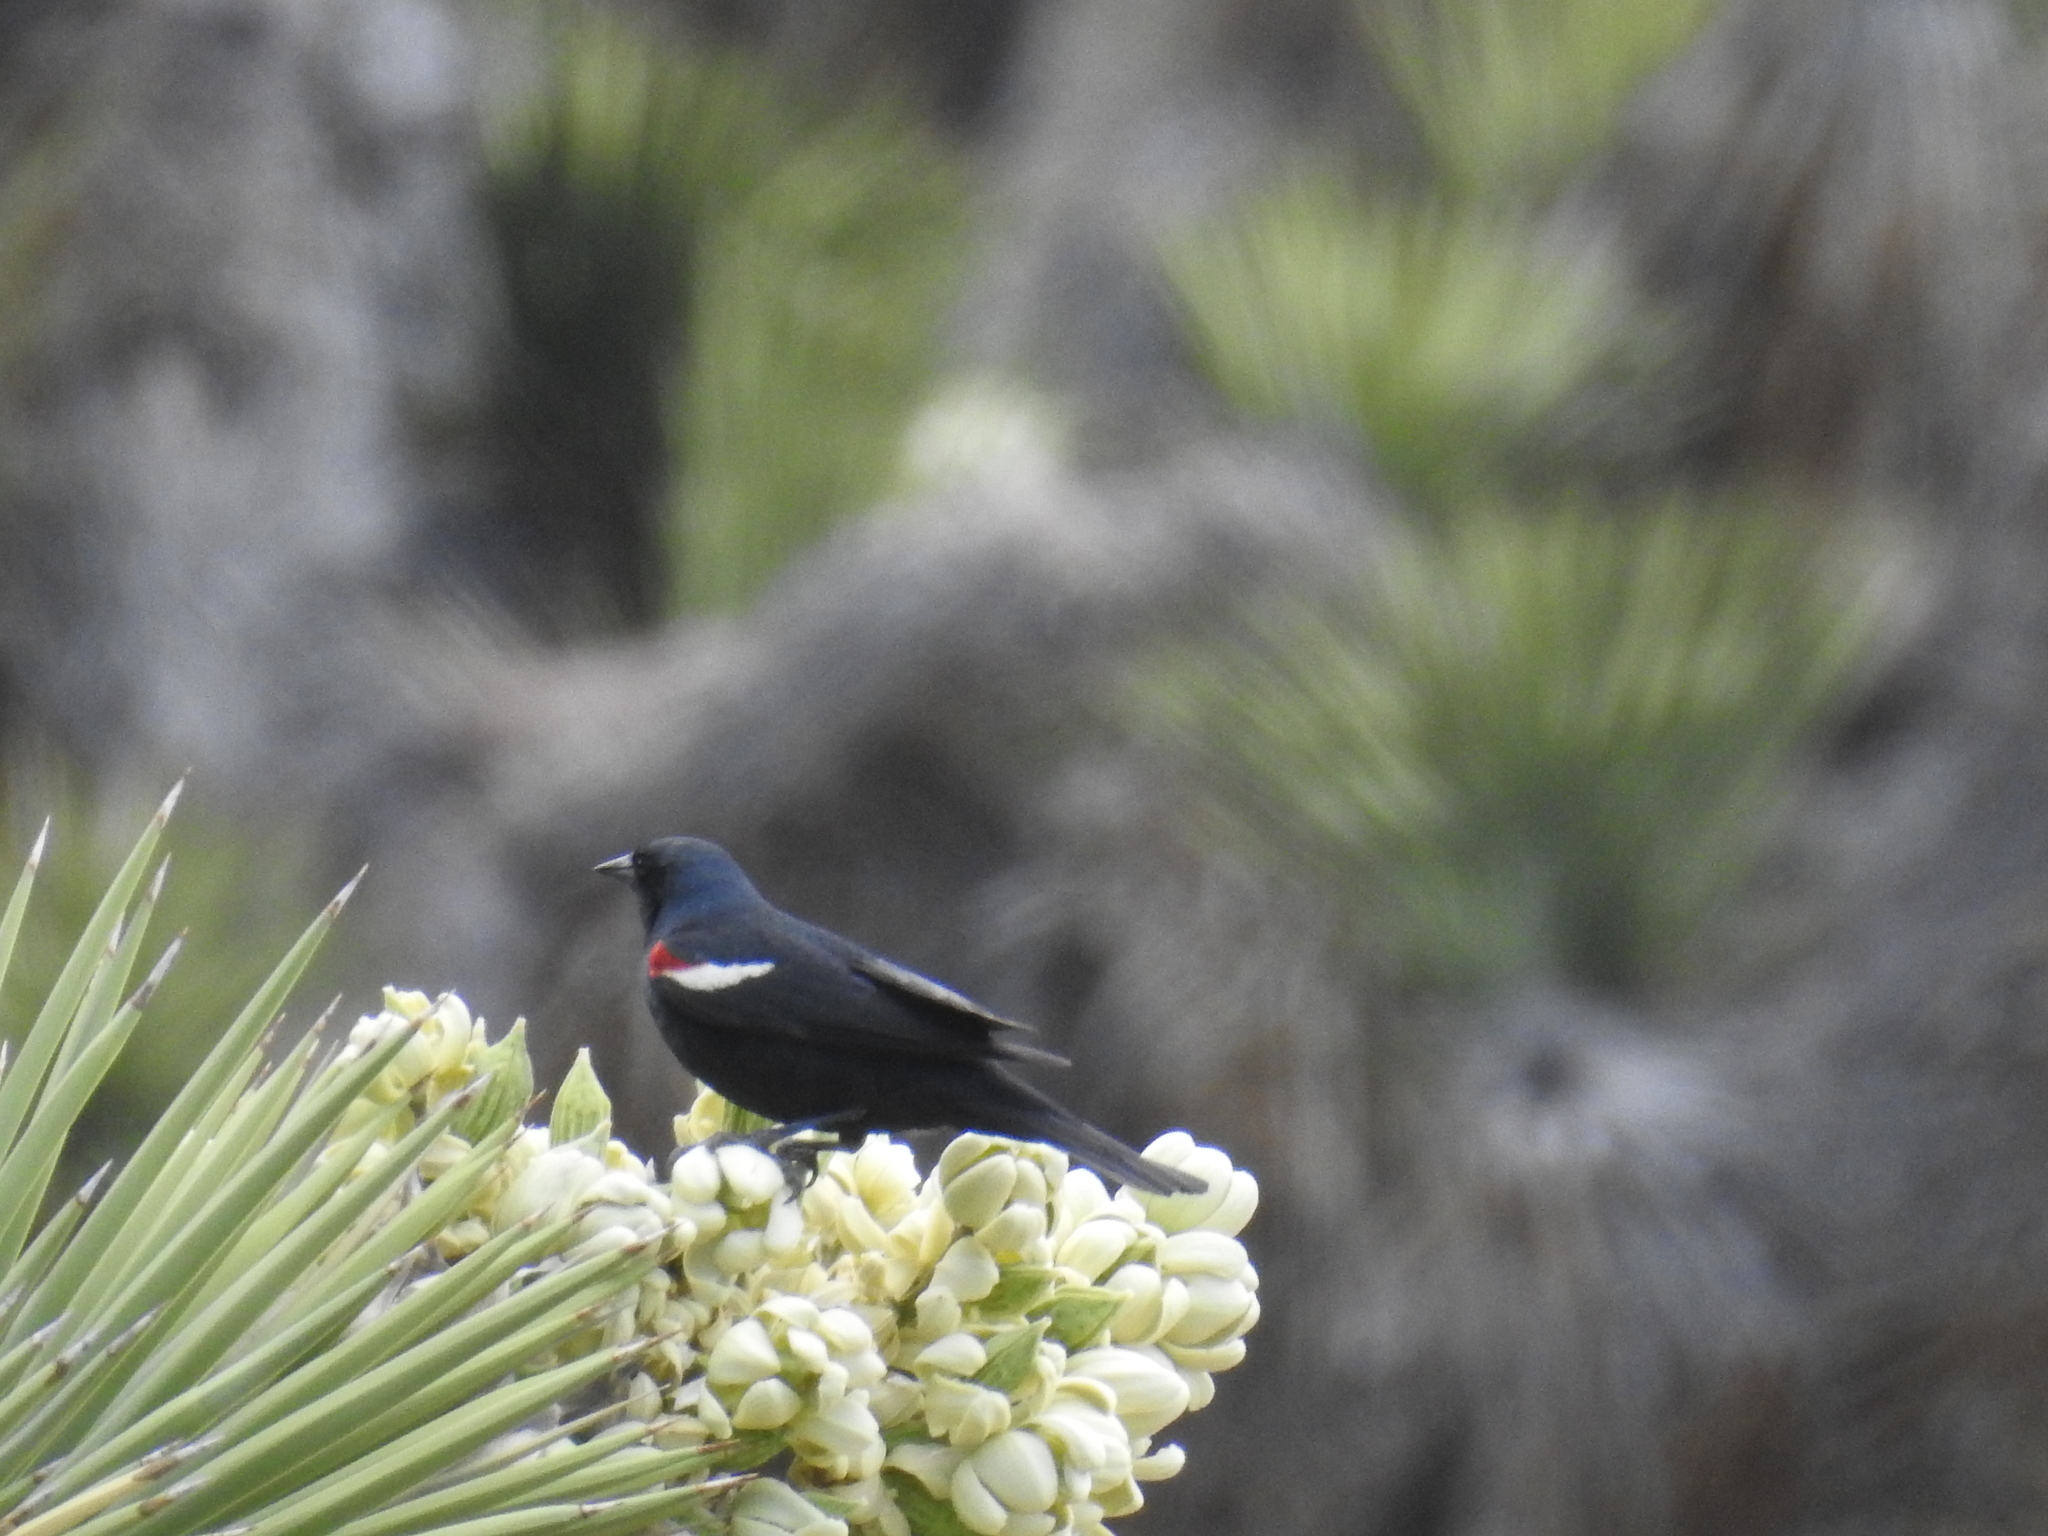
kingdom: Animalia
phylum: Chordata
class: Aves
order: Passeriformes
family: Icteridae
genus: Agelaius
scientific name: Agelaius tricolor
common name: Tricolored blackbird
